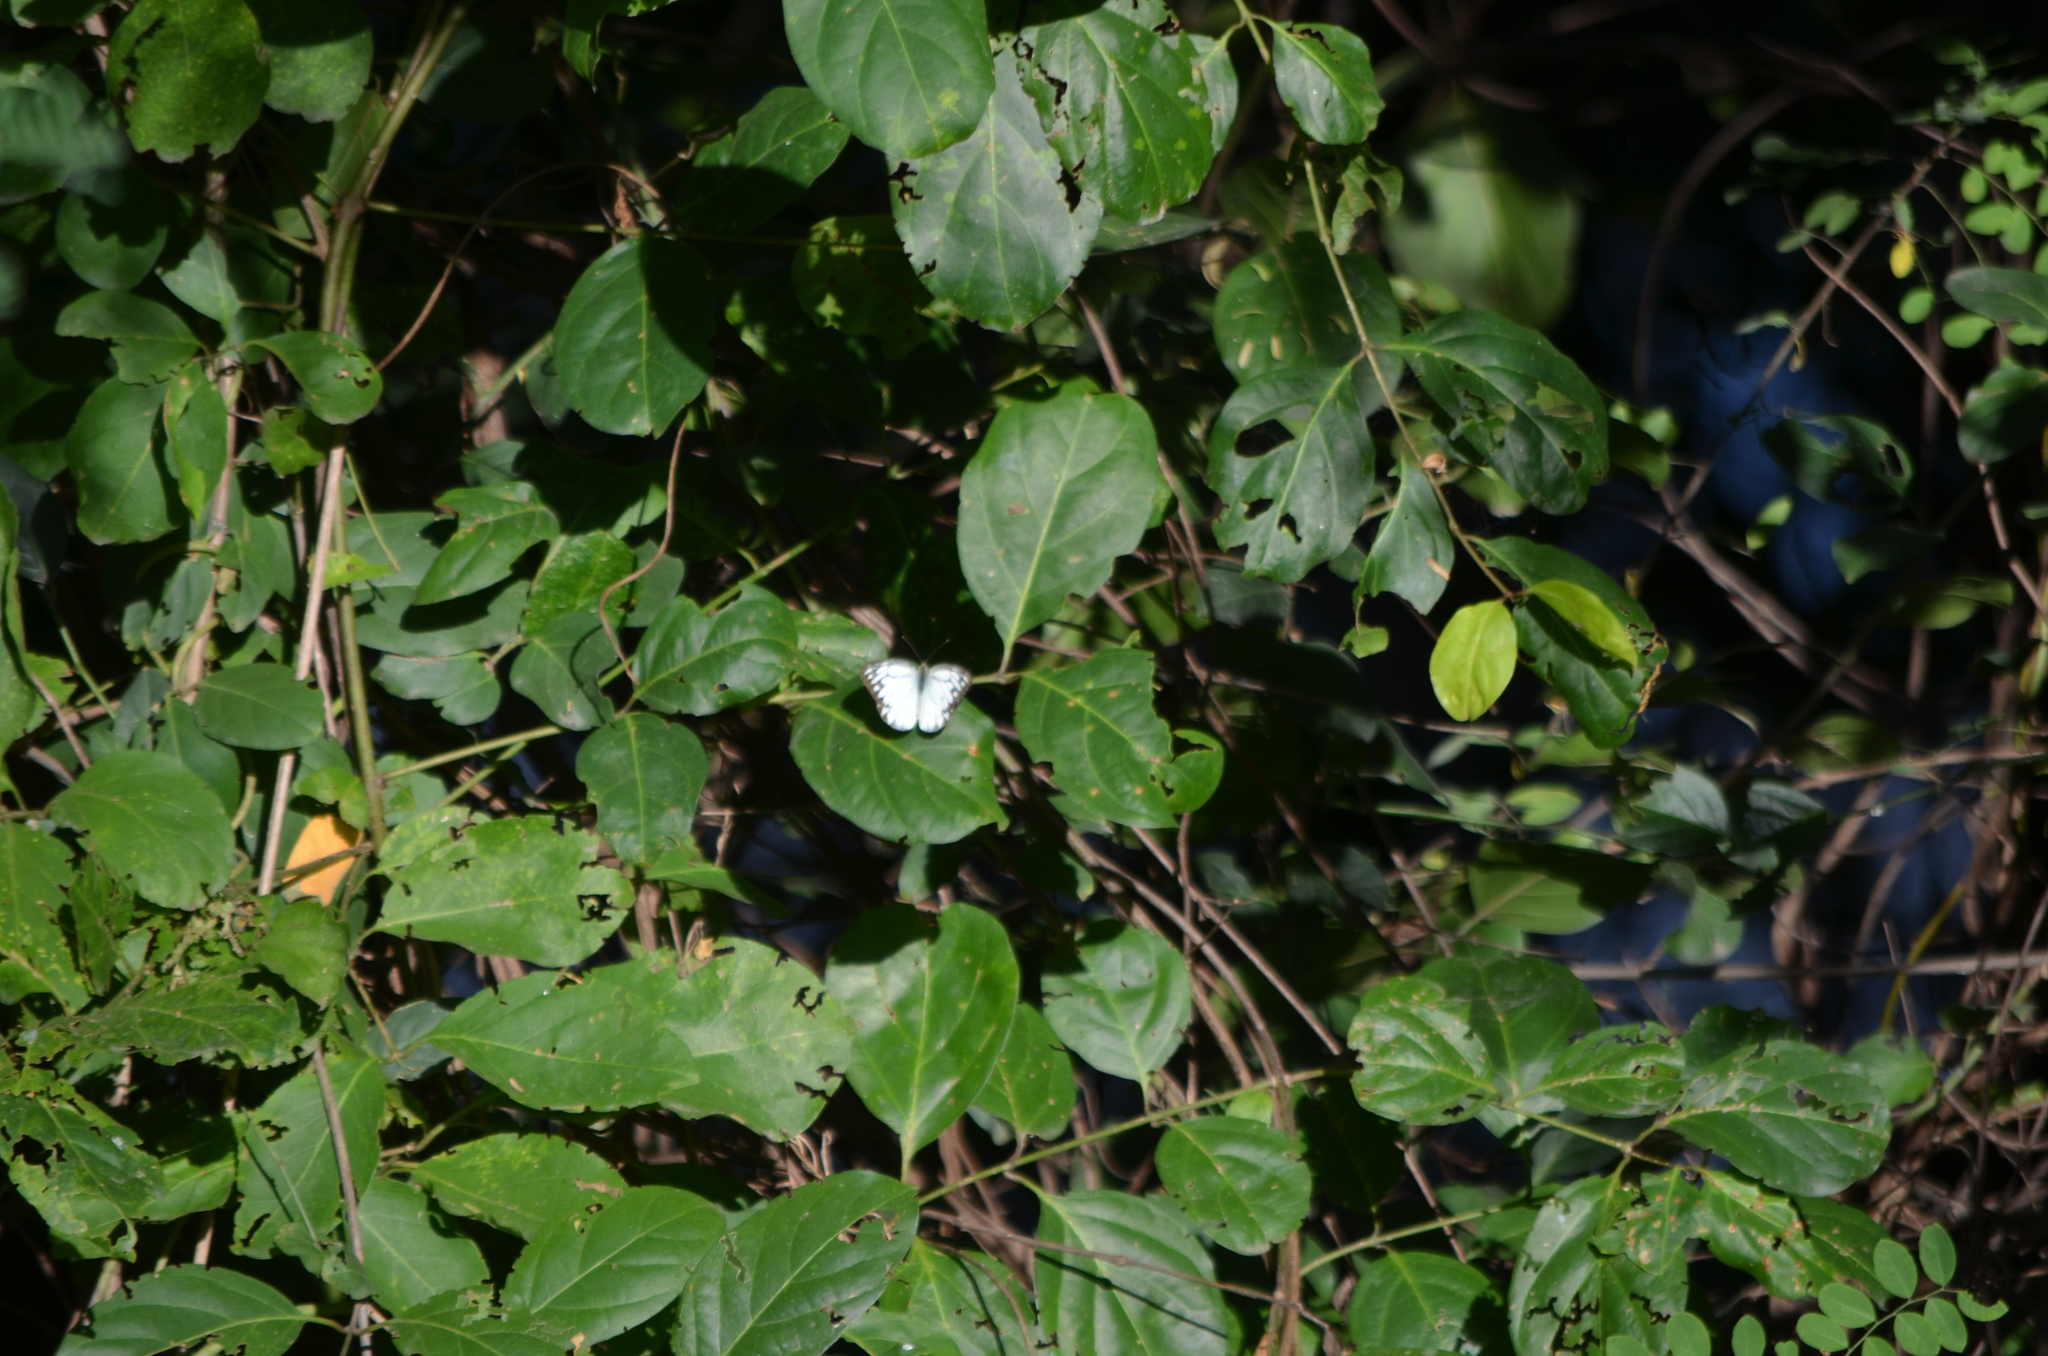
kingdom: Animalia
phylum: Arthropoda
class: Insecta
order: Lepidoptera
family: Pieridae
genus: Cepora
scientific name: Cepora nerissa
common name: Common gull
